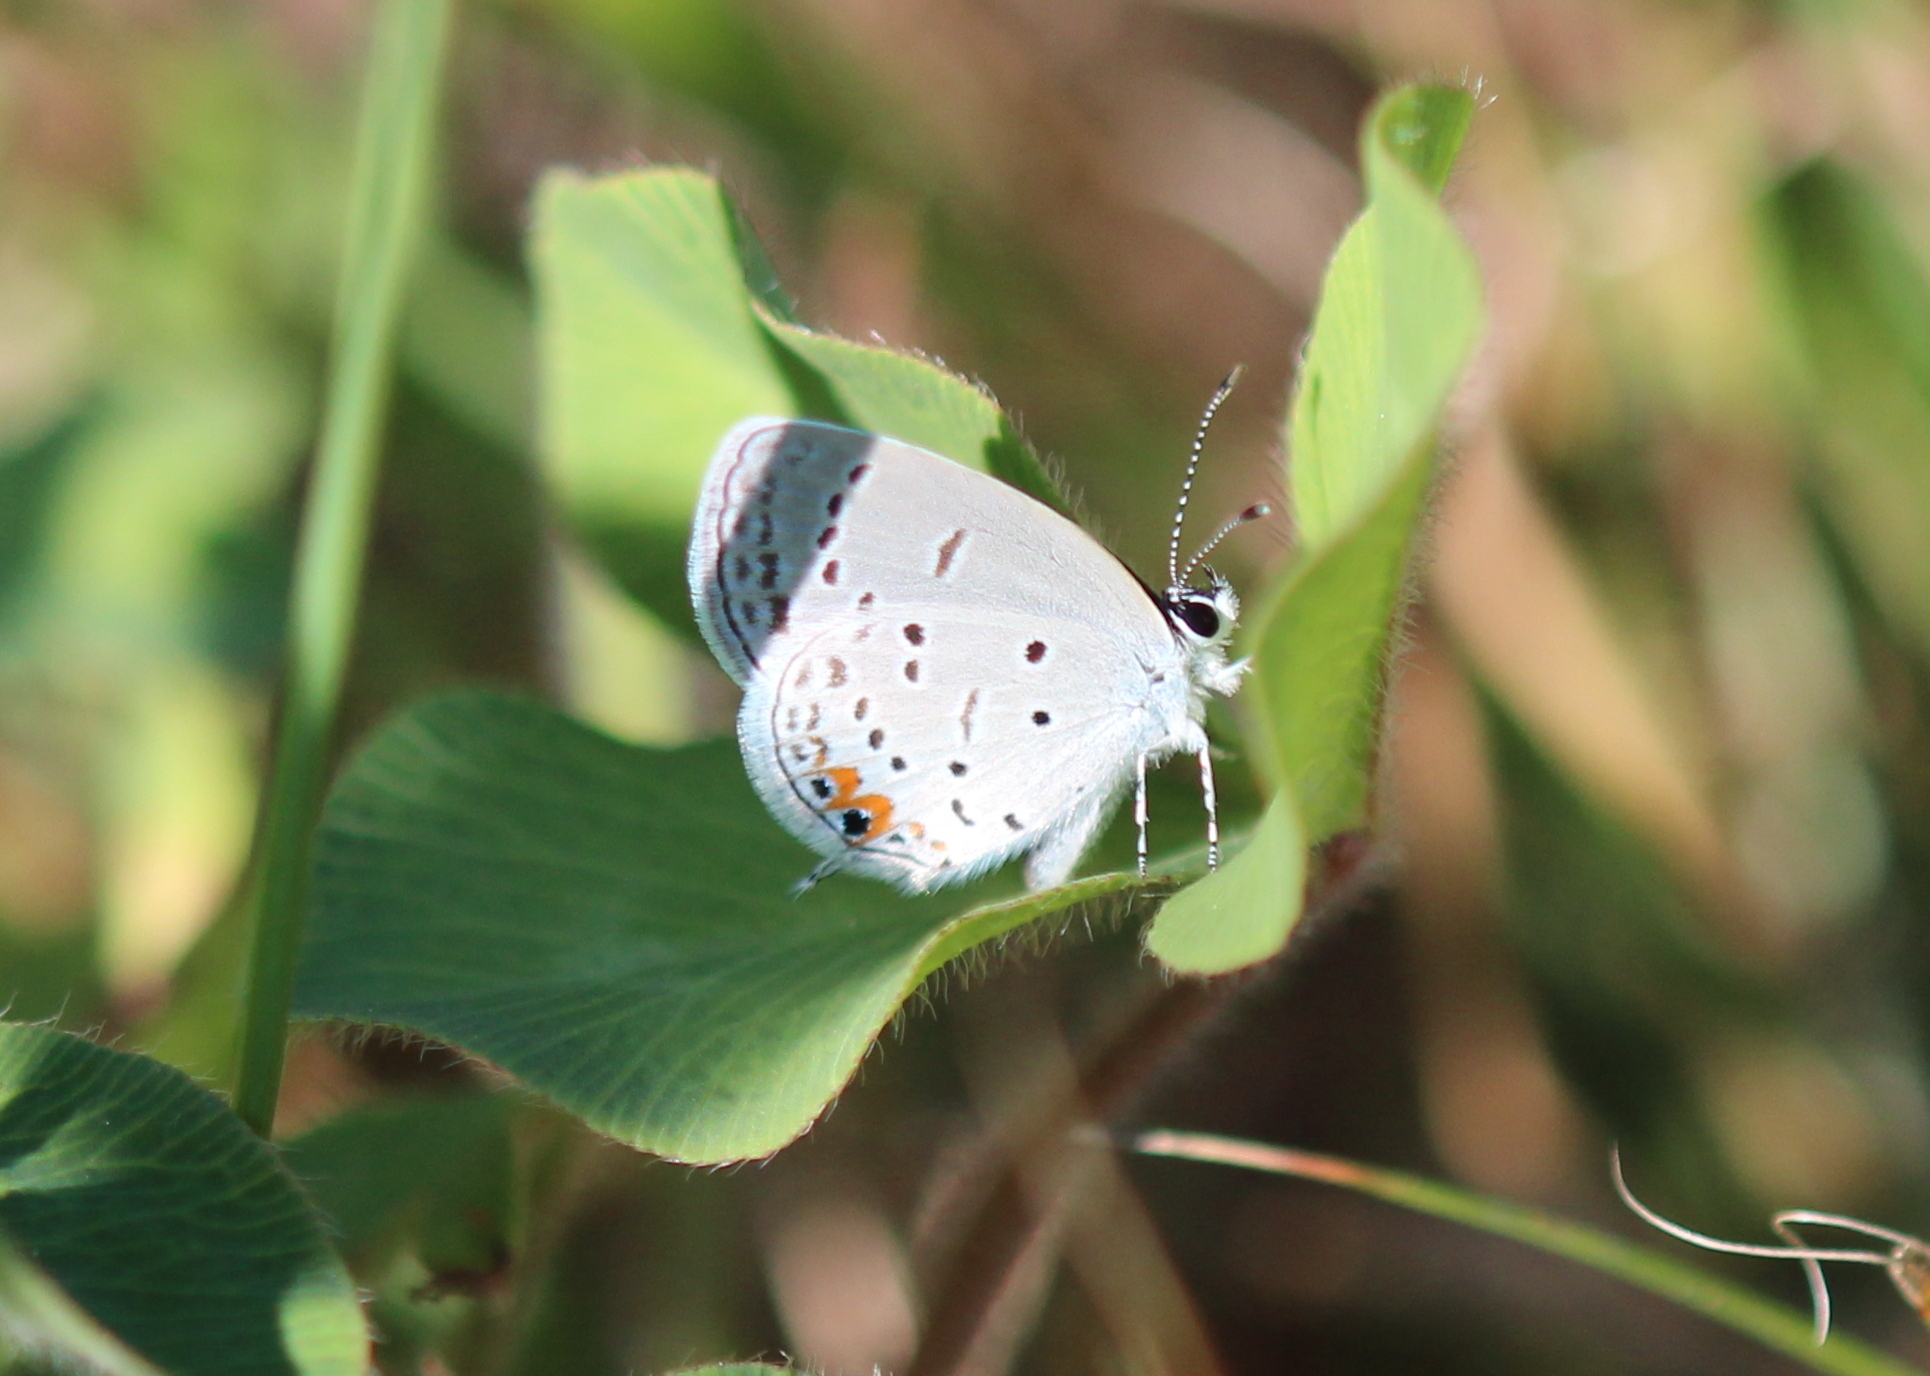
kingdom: Animalia
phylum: Arthropoda
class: Insecta
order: Lepidoptera
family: Lycaenidae
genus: Elkalyce
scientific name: Elkalyce comyntas
